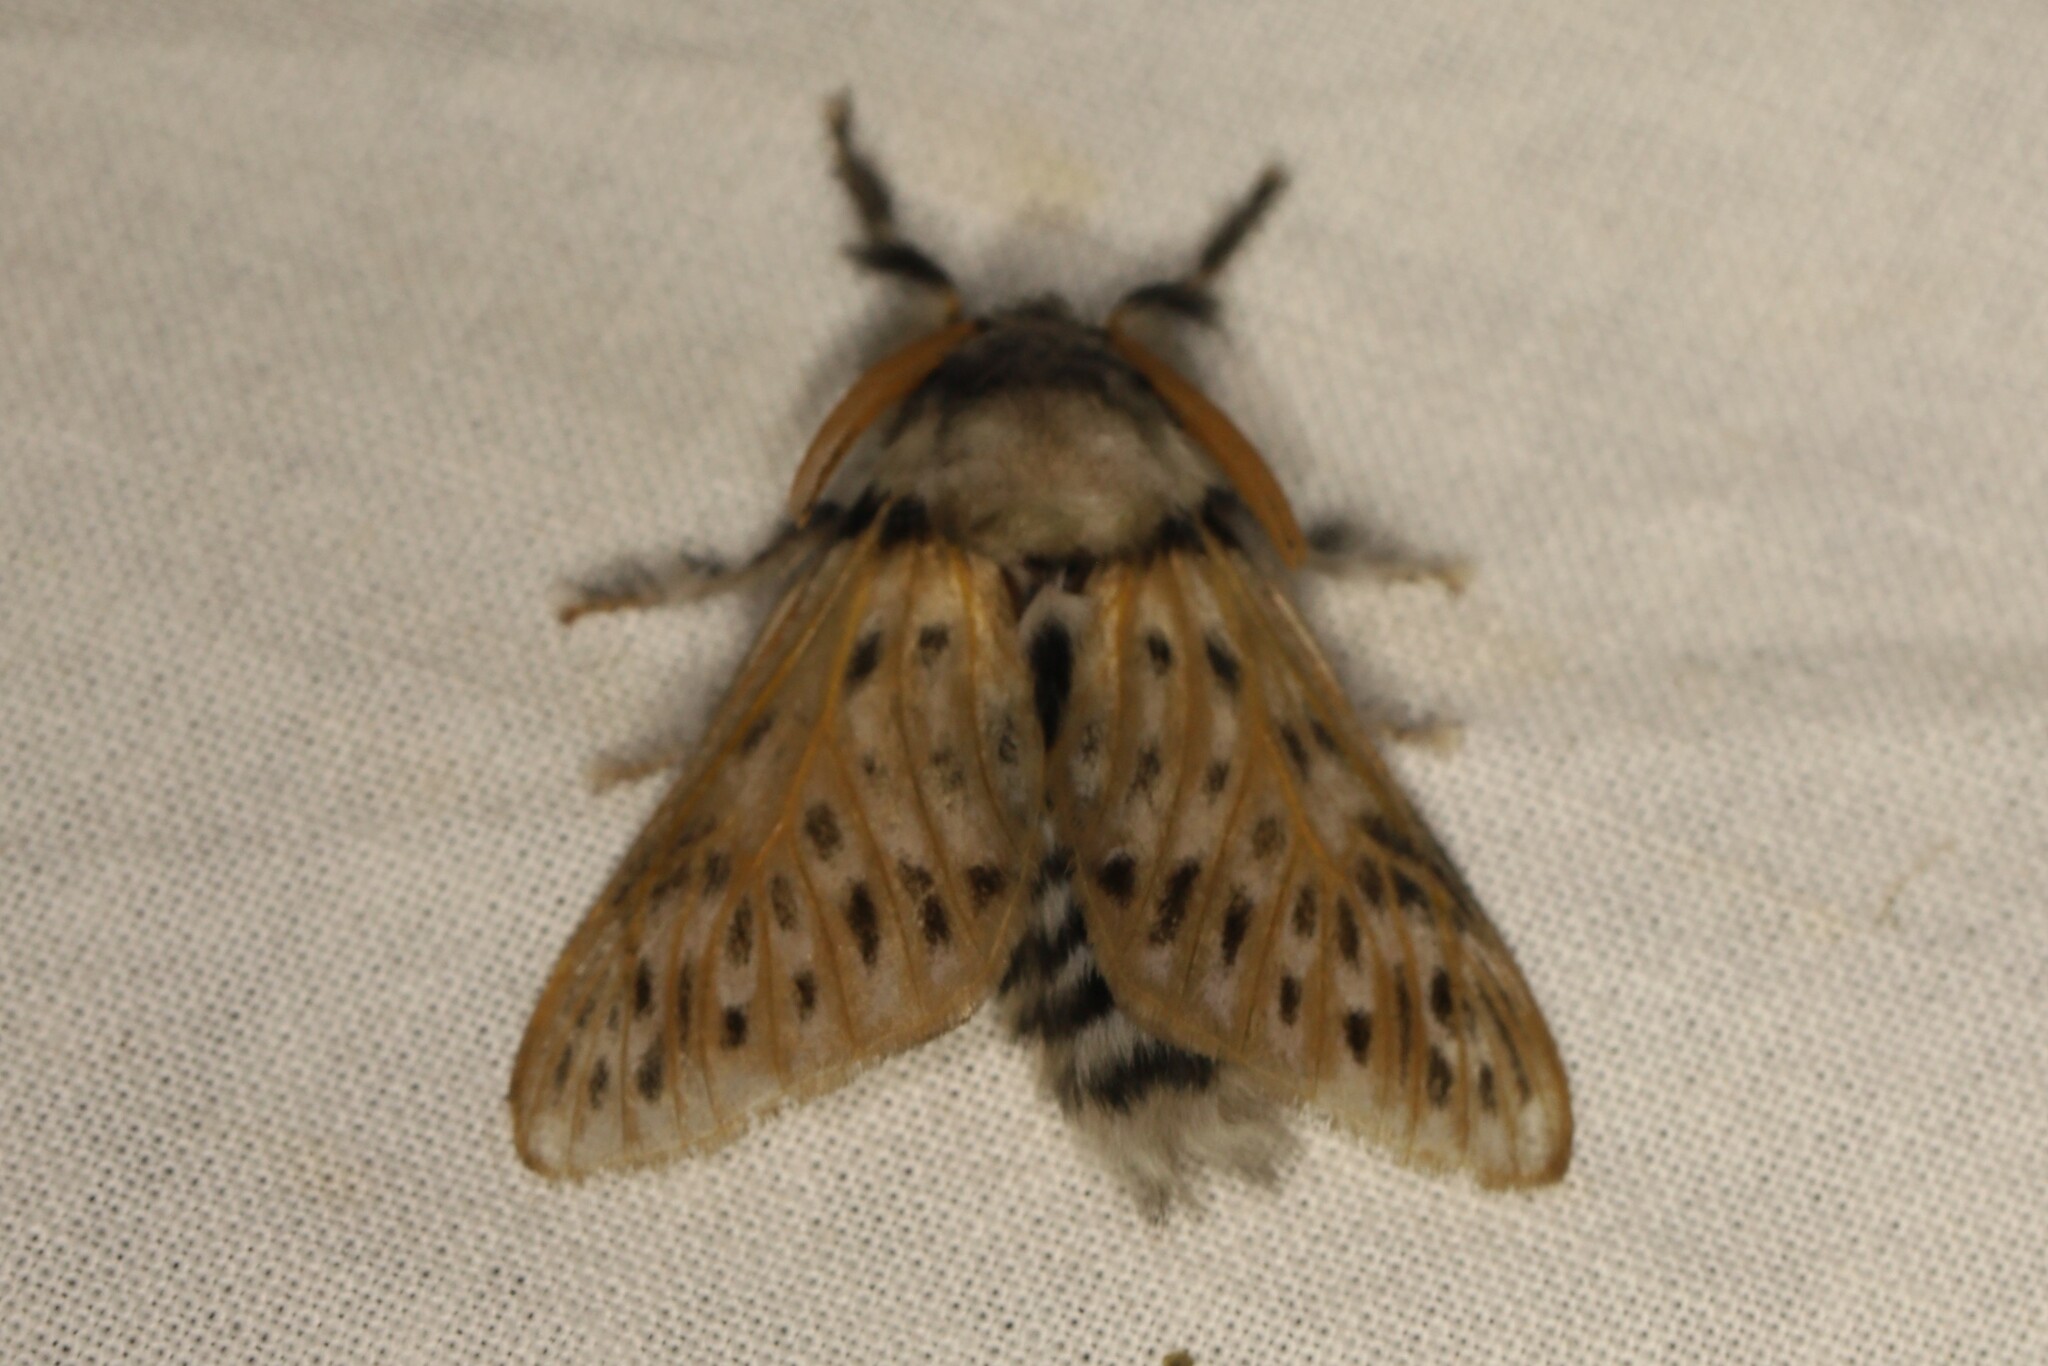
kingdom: Animalia
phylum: Arthropoda
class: Insecta
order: Lepidoptera
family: Megalopygidae
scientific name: Megalopygidae
